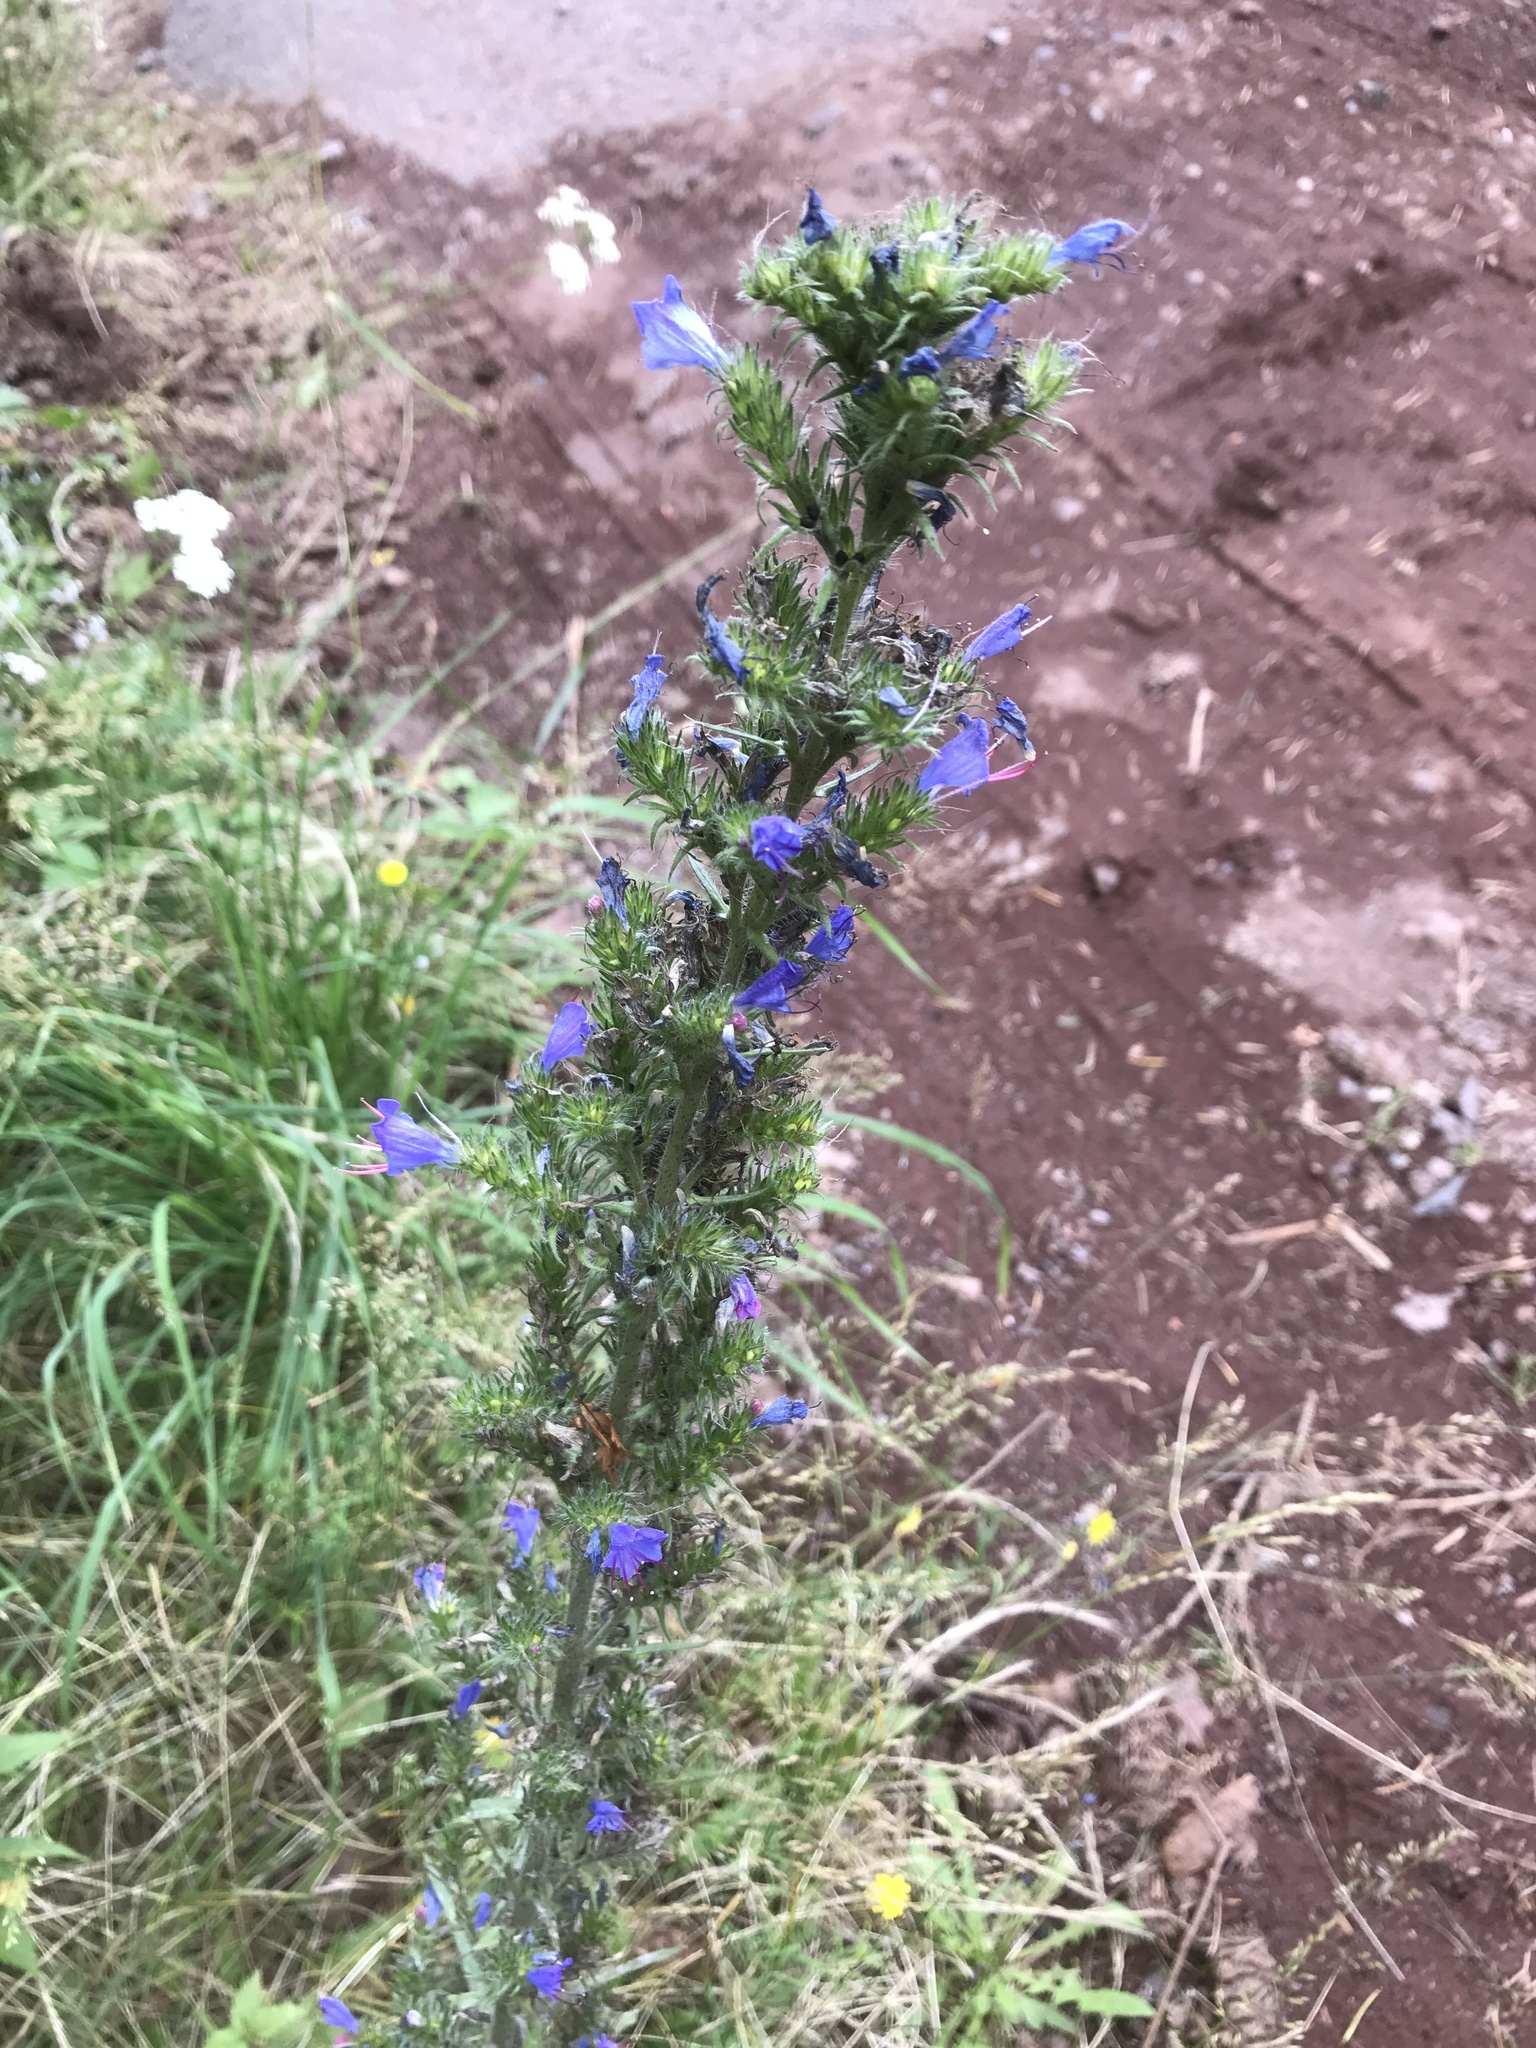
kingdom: Plantae
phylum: Tracheophyta
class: Magnoliopsida
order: Boraginales
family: Boraginaceae
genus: Echium
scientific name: Echium vulgare
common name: Common viper's bugloss
